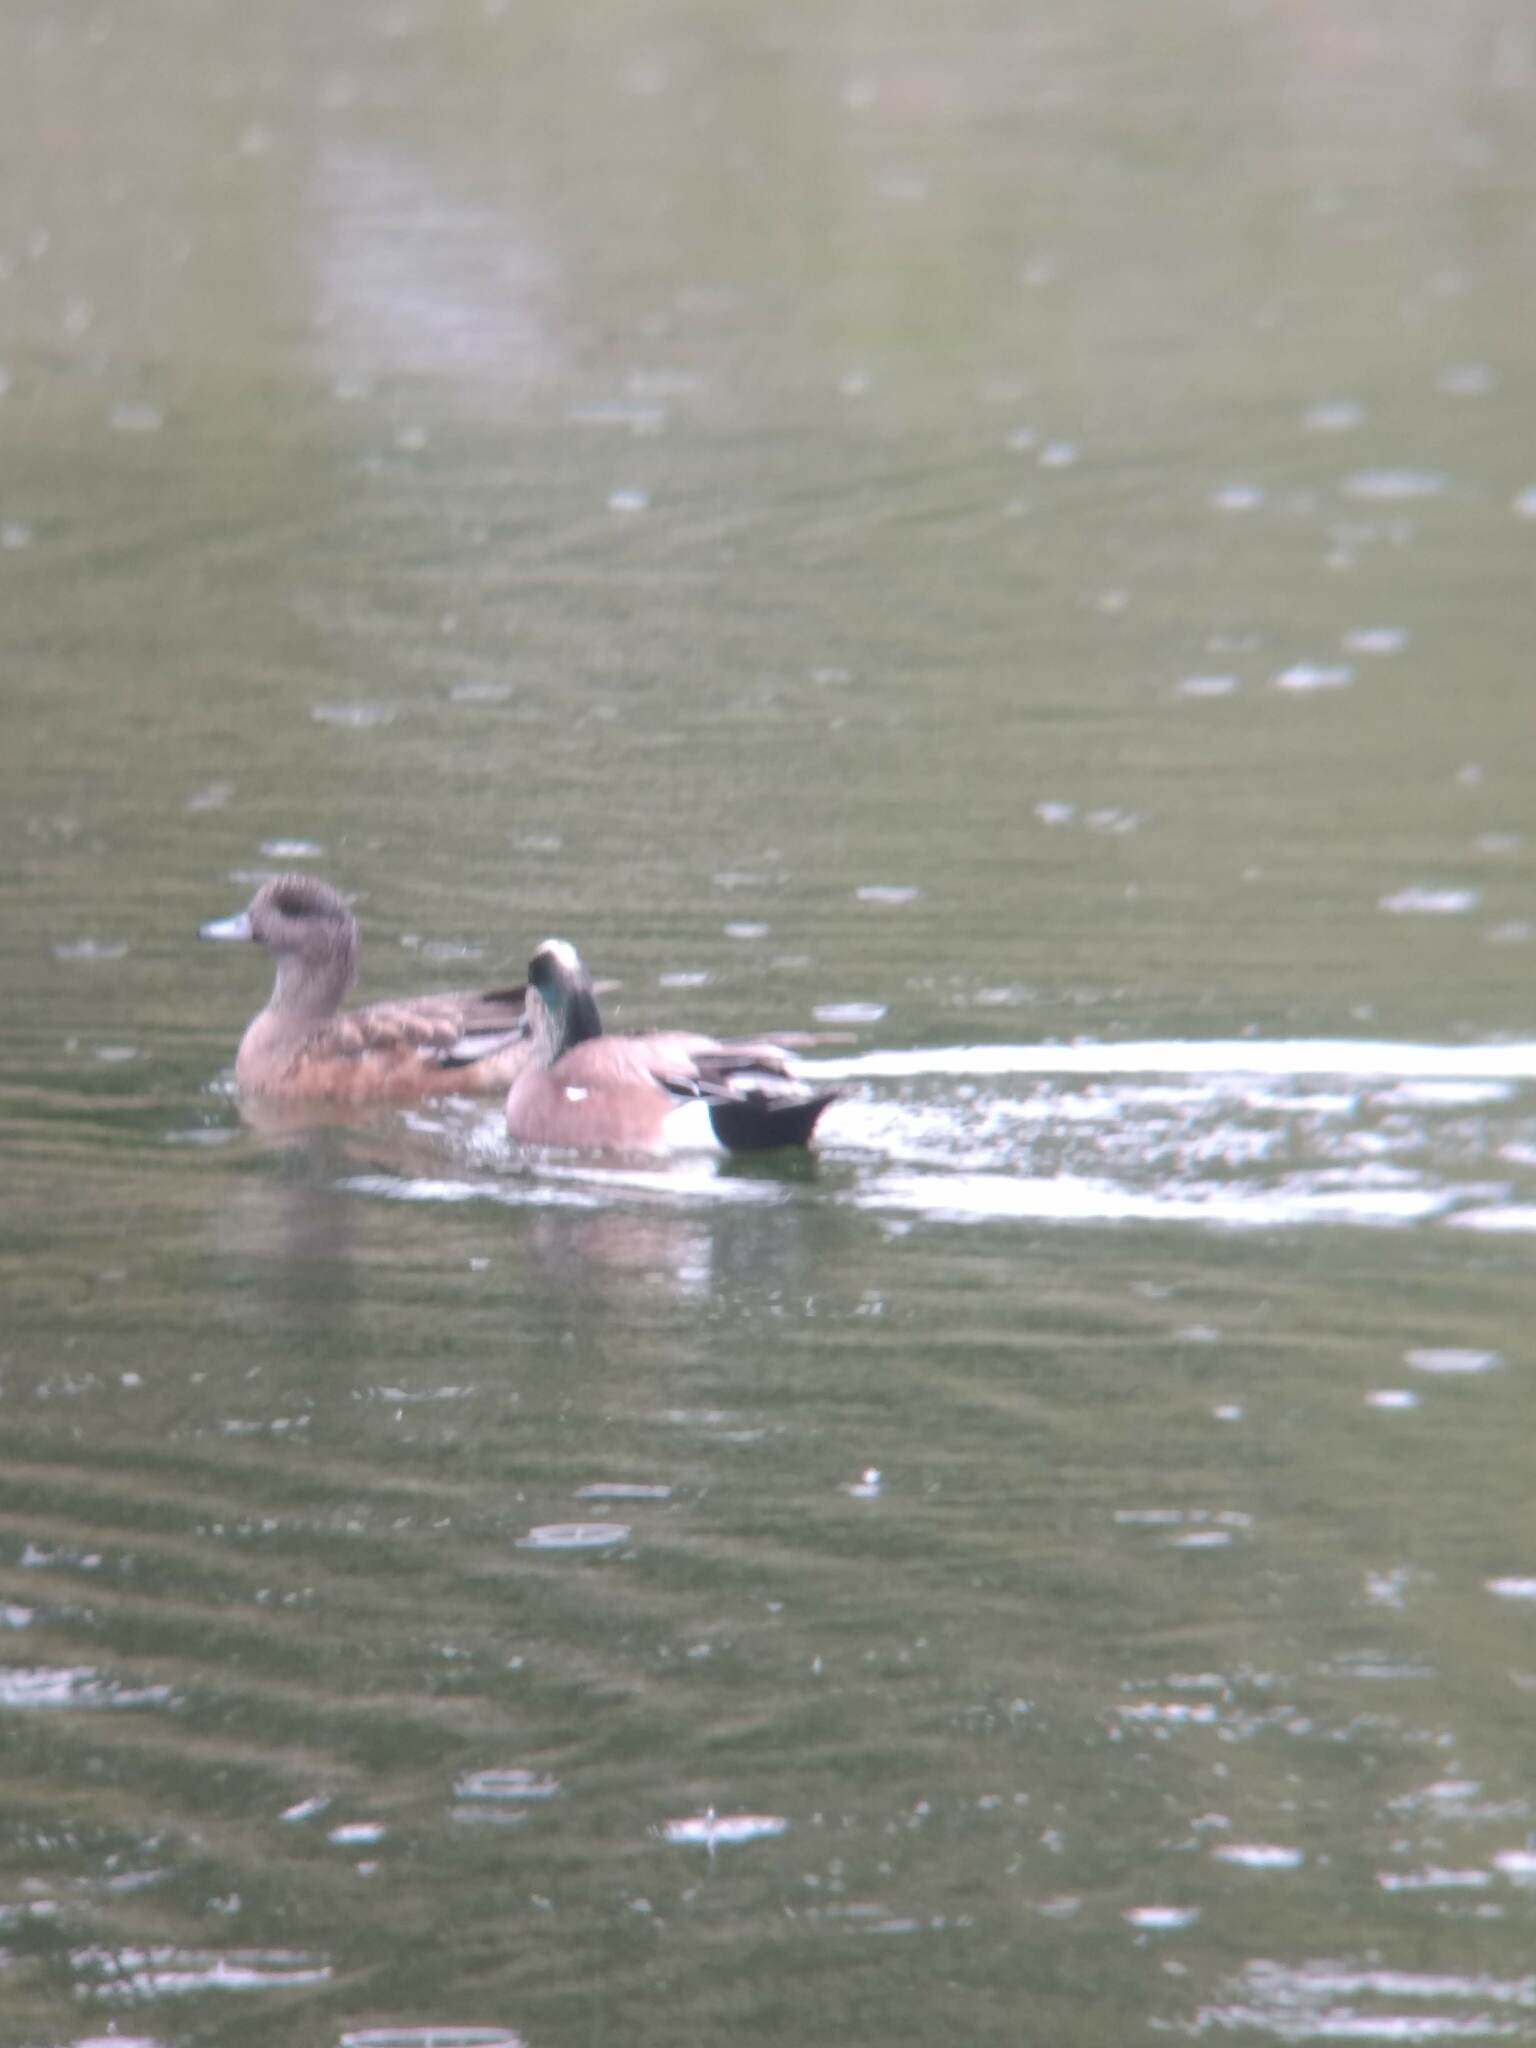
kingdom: Animalia
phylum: Chordata
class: Aves
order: Anseriformes
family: Anatidae
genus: Mareca
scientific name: Mareca americana
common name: American wigeon
